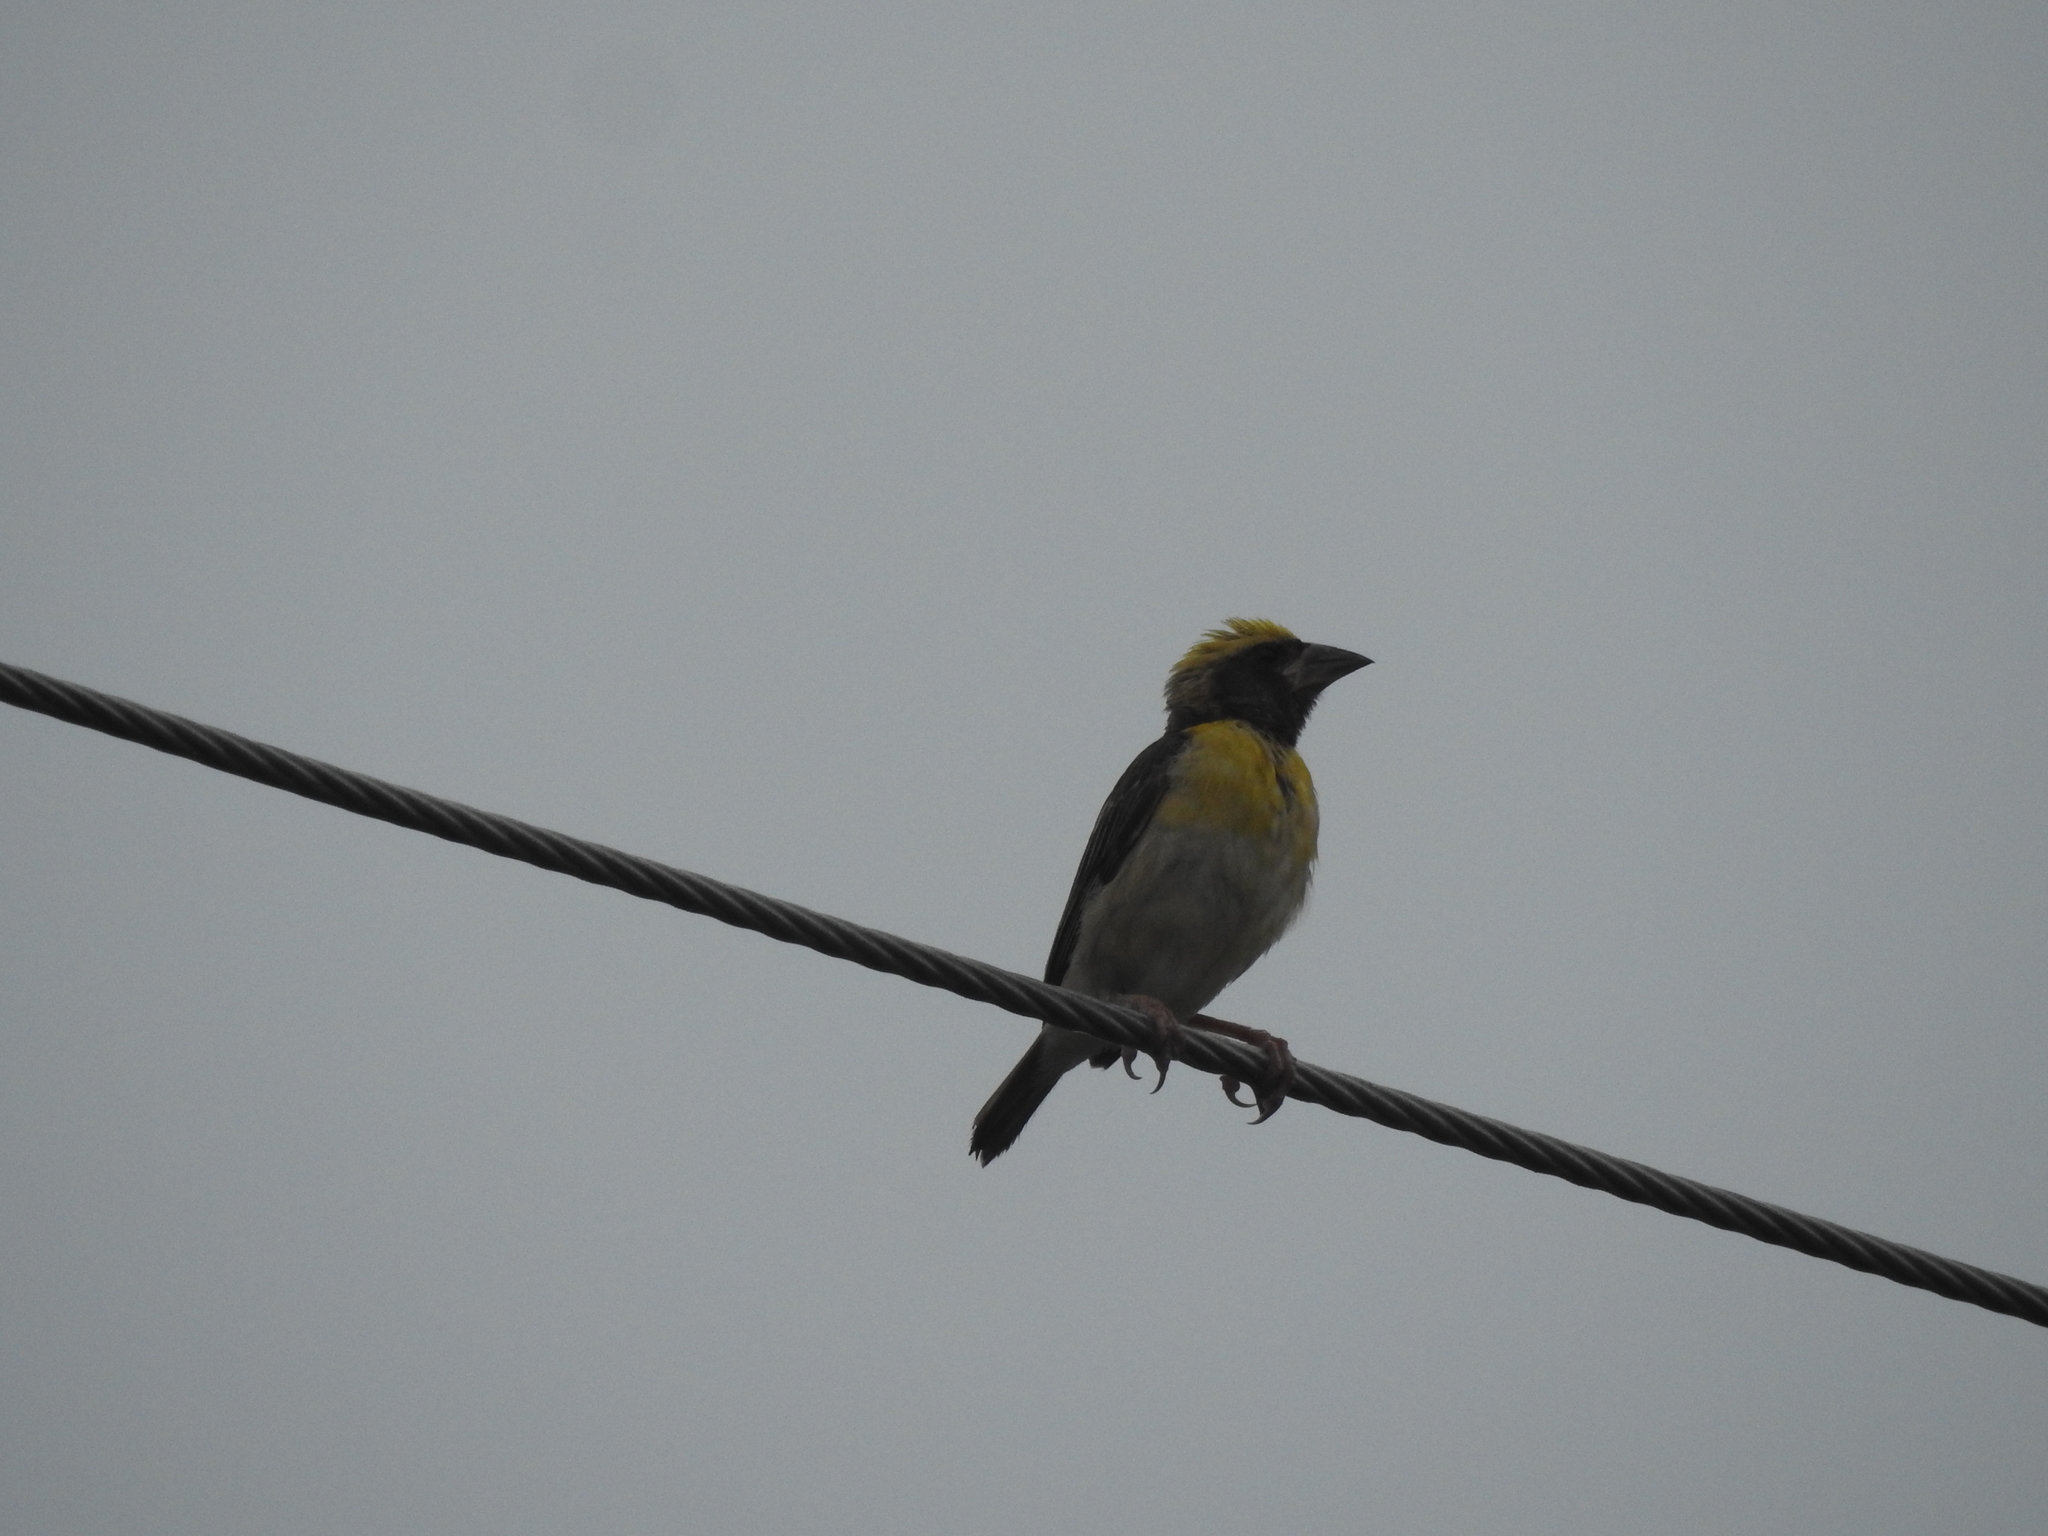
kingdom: Animalia
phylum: Chordata
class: Aves
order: Passeriformes
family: Ploceidae
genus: Ploceus
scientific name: Ploceus philippinus
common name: Baya weaver
